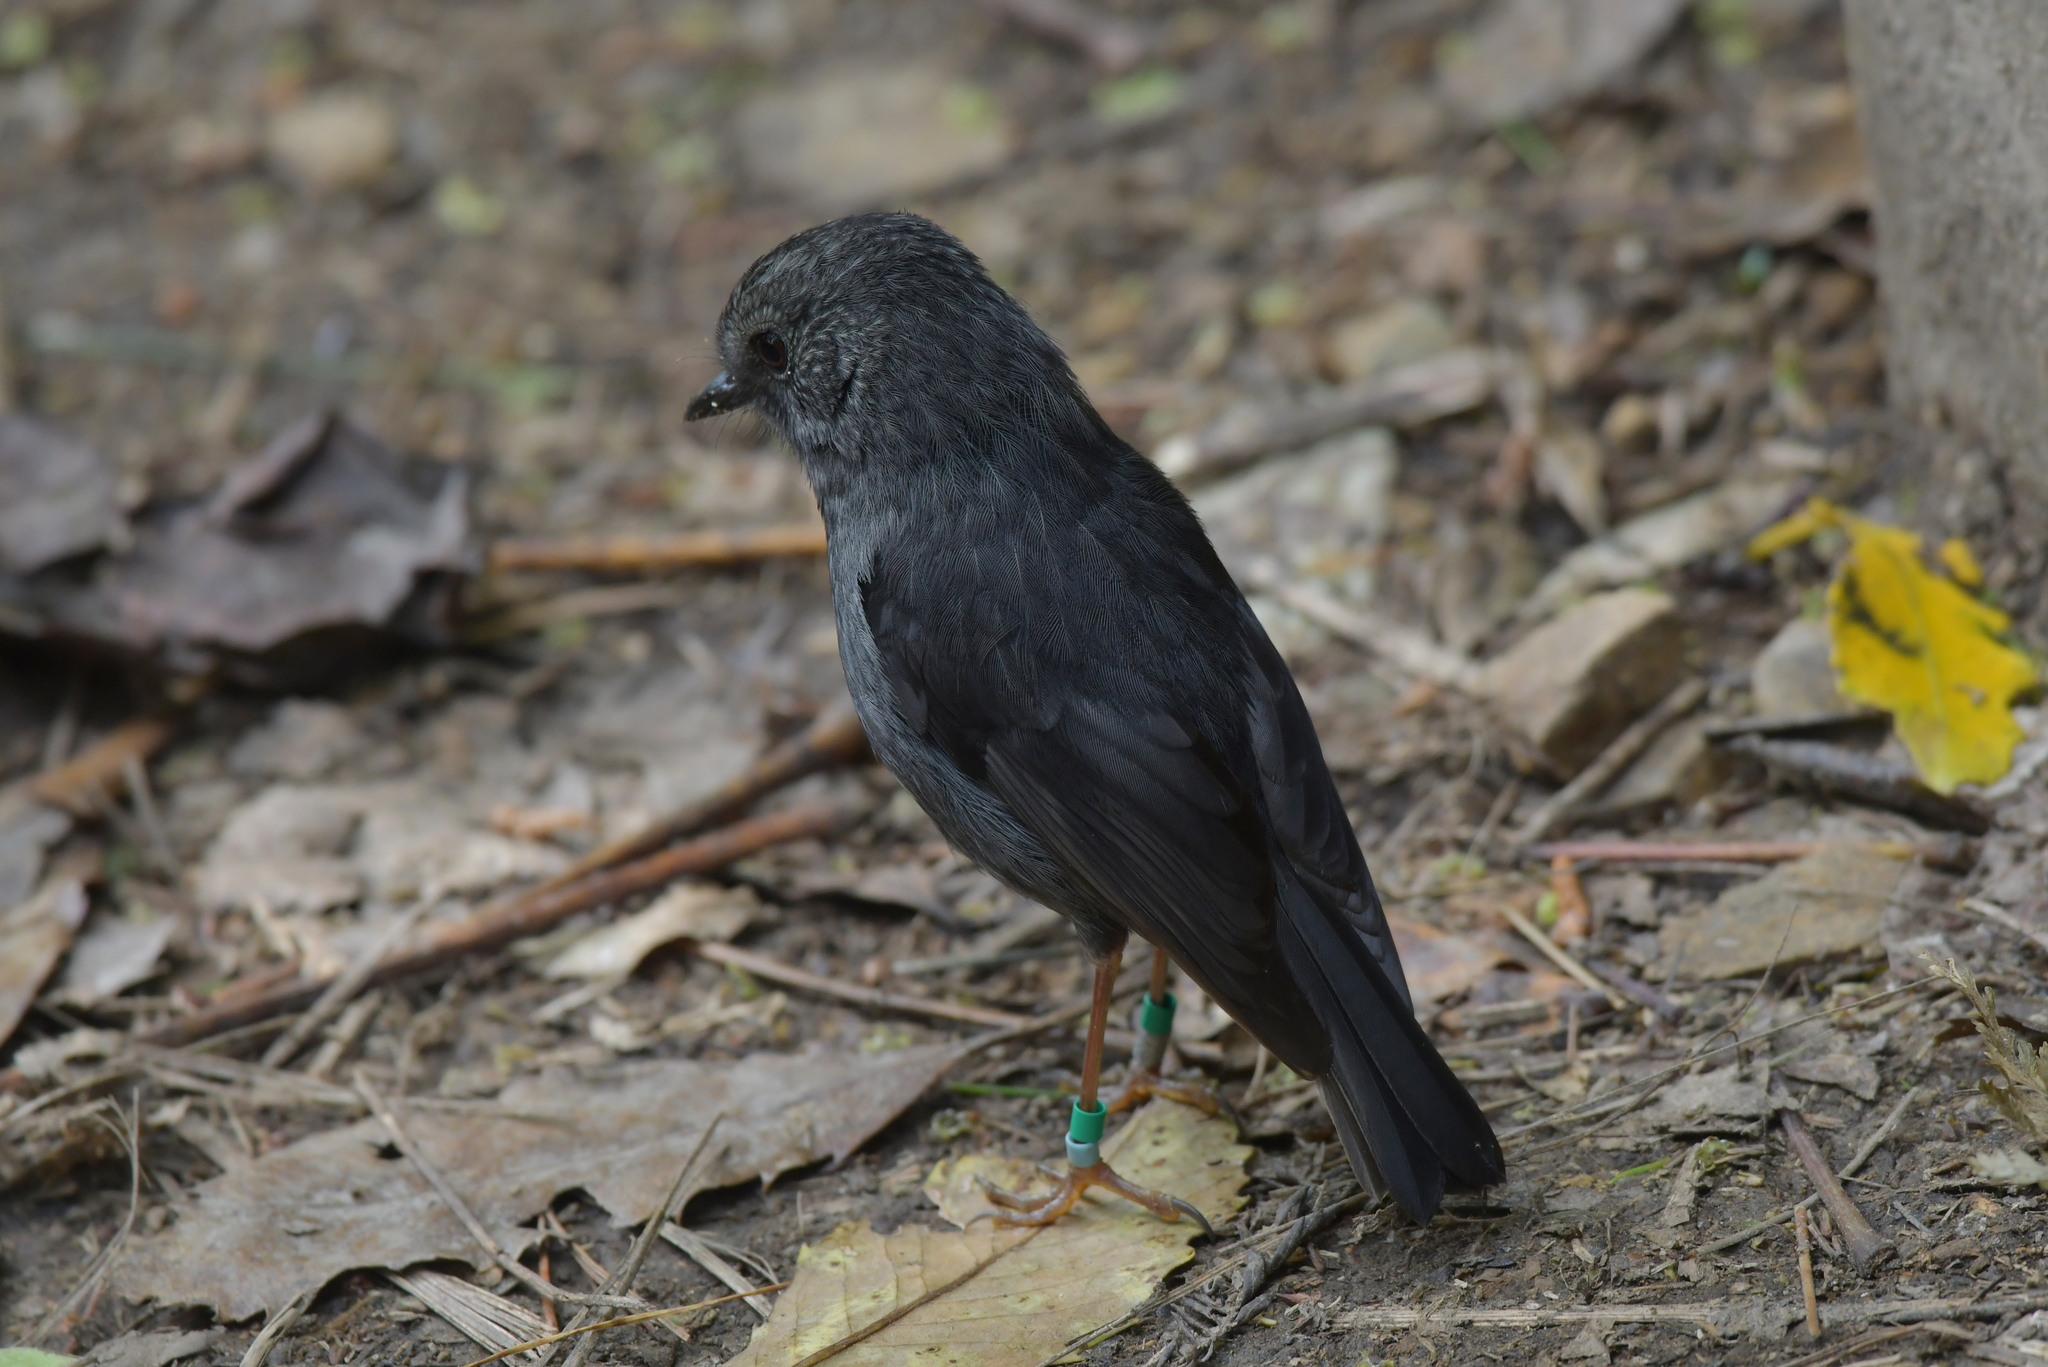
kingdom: Animalia
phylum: Chordata
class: Aves
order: Passeriformes
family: Petroicidae
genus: Petroica
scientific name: Petroica australis
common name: New zealand robin
